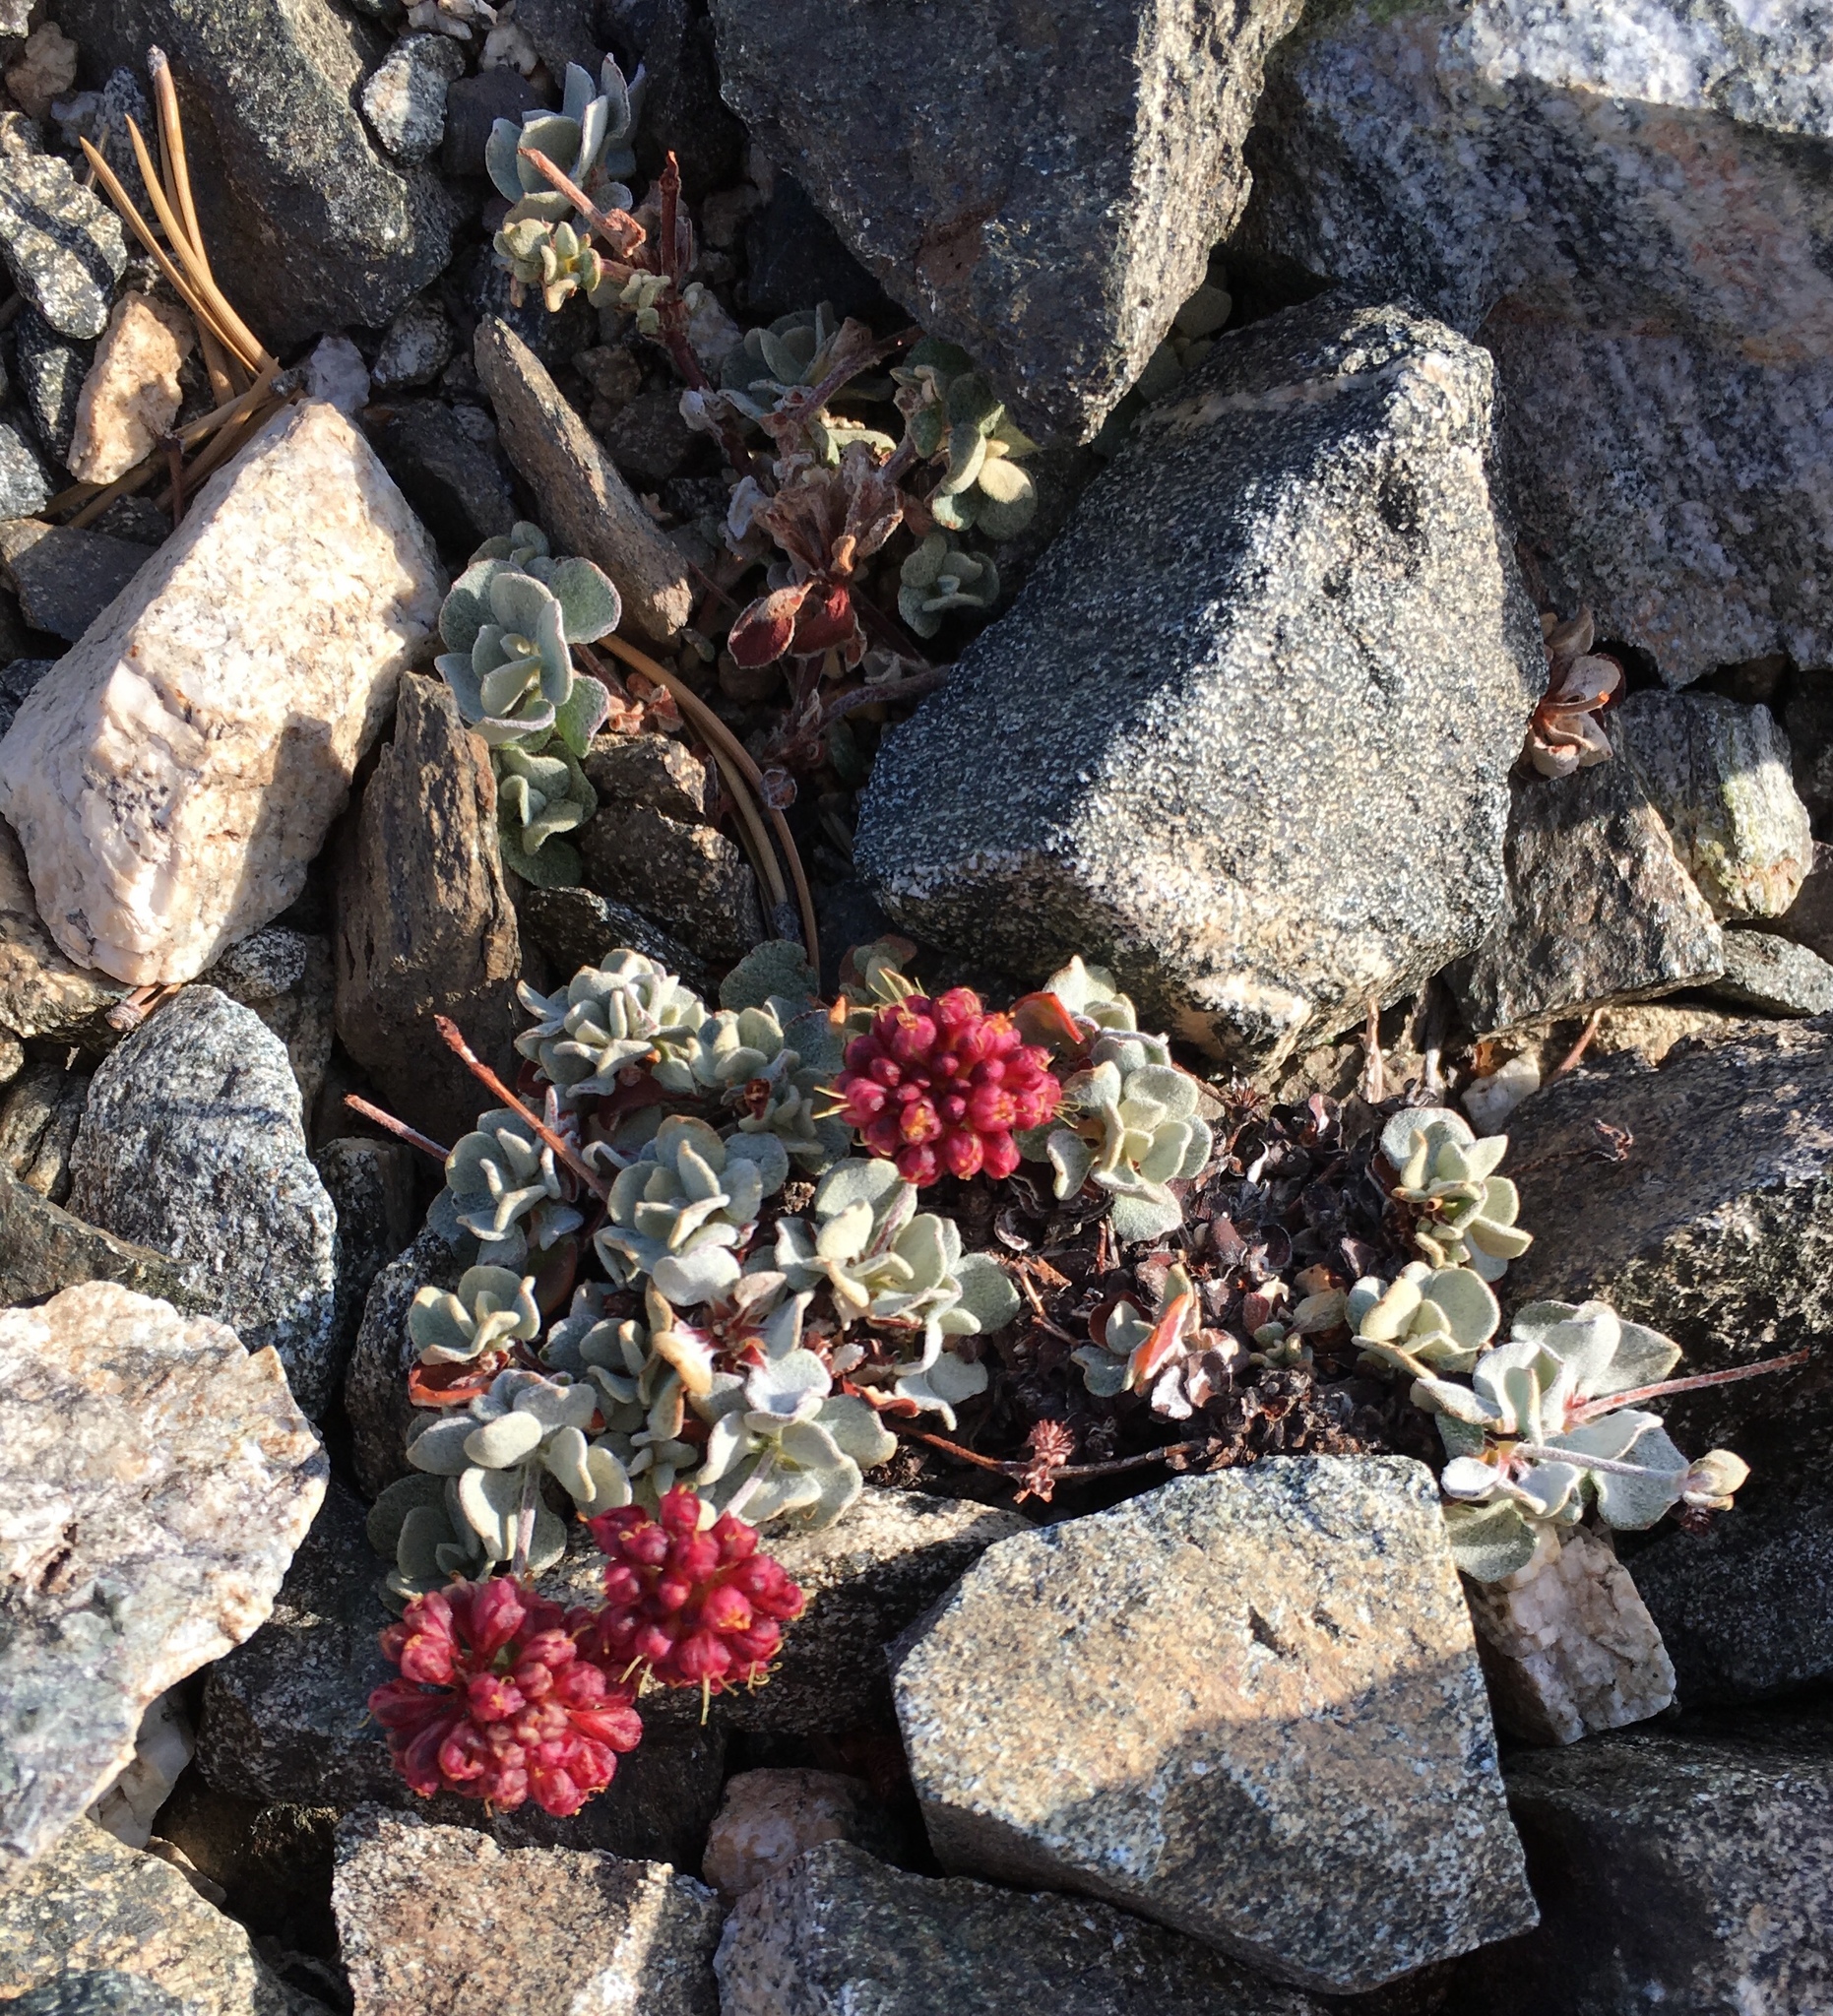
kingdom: Plantae
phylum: Tracheophyta
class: Magnoliopsida
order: Caryophyllales
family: Polygonaceae
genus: Eriogonum
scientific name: Eriogonum umbellatum
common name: Sulfur-buckwheat
